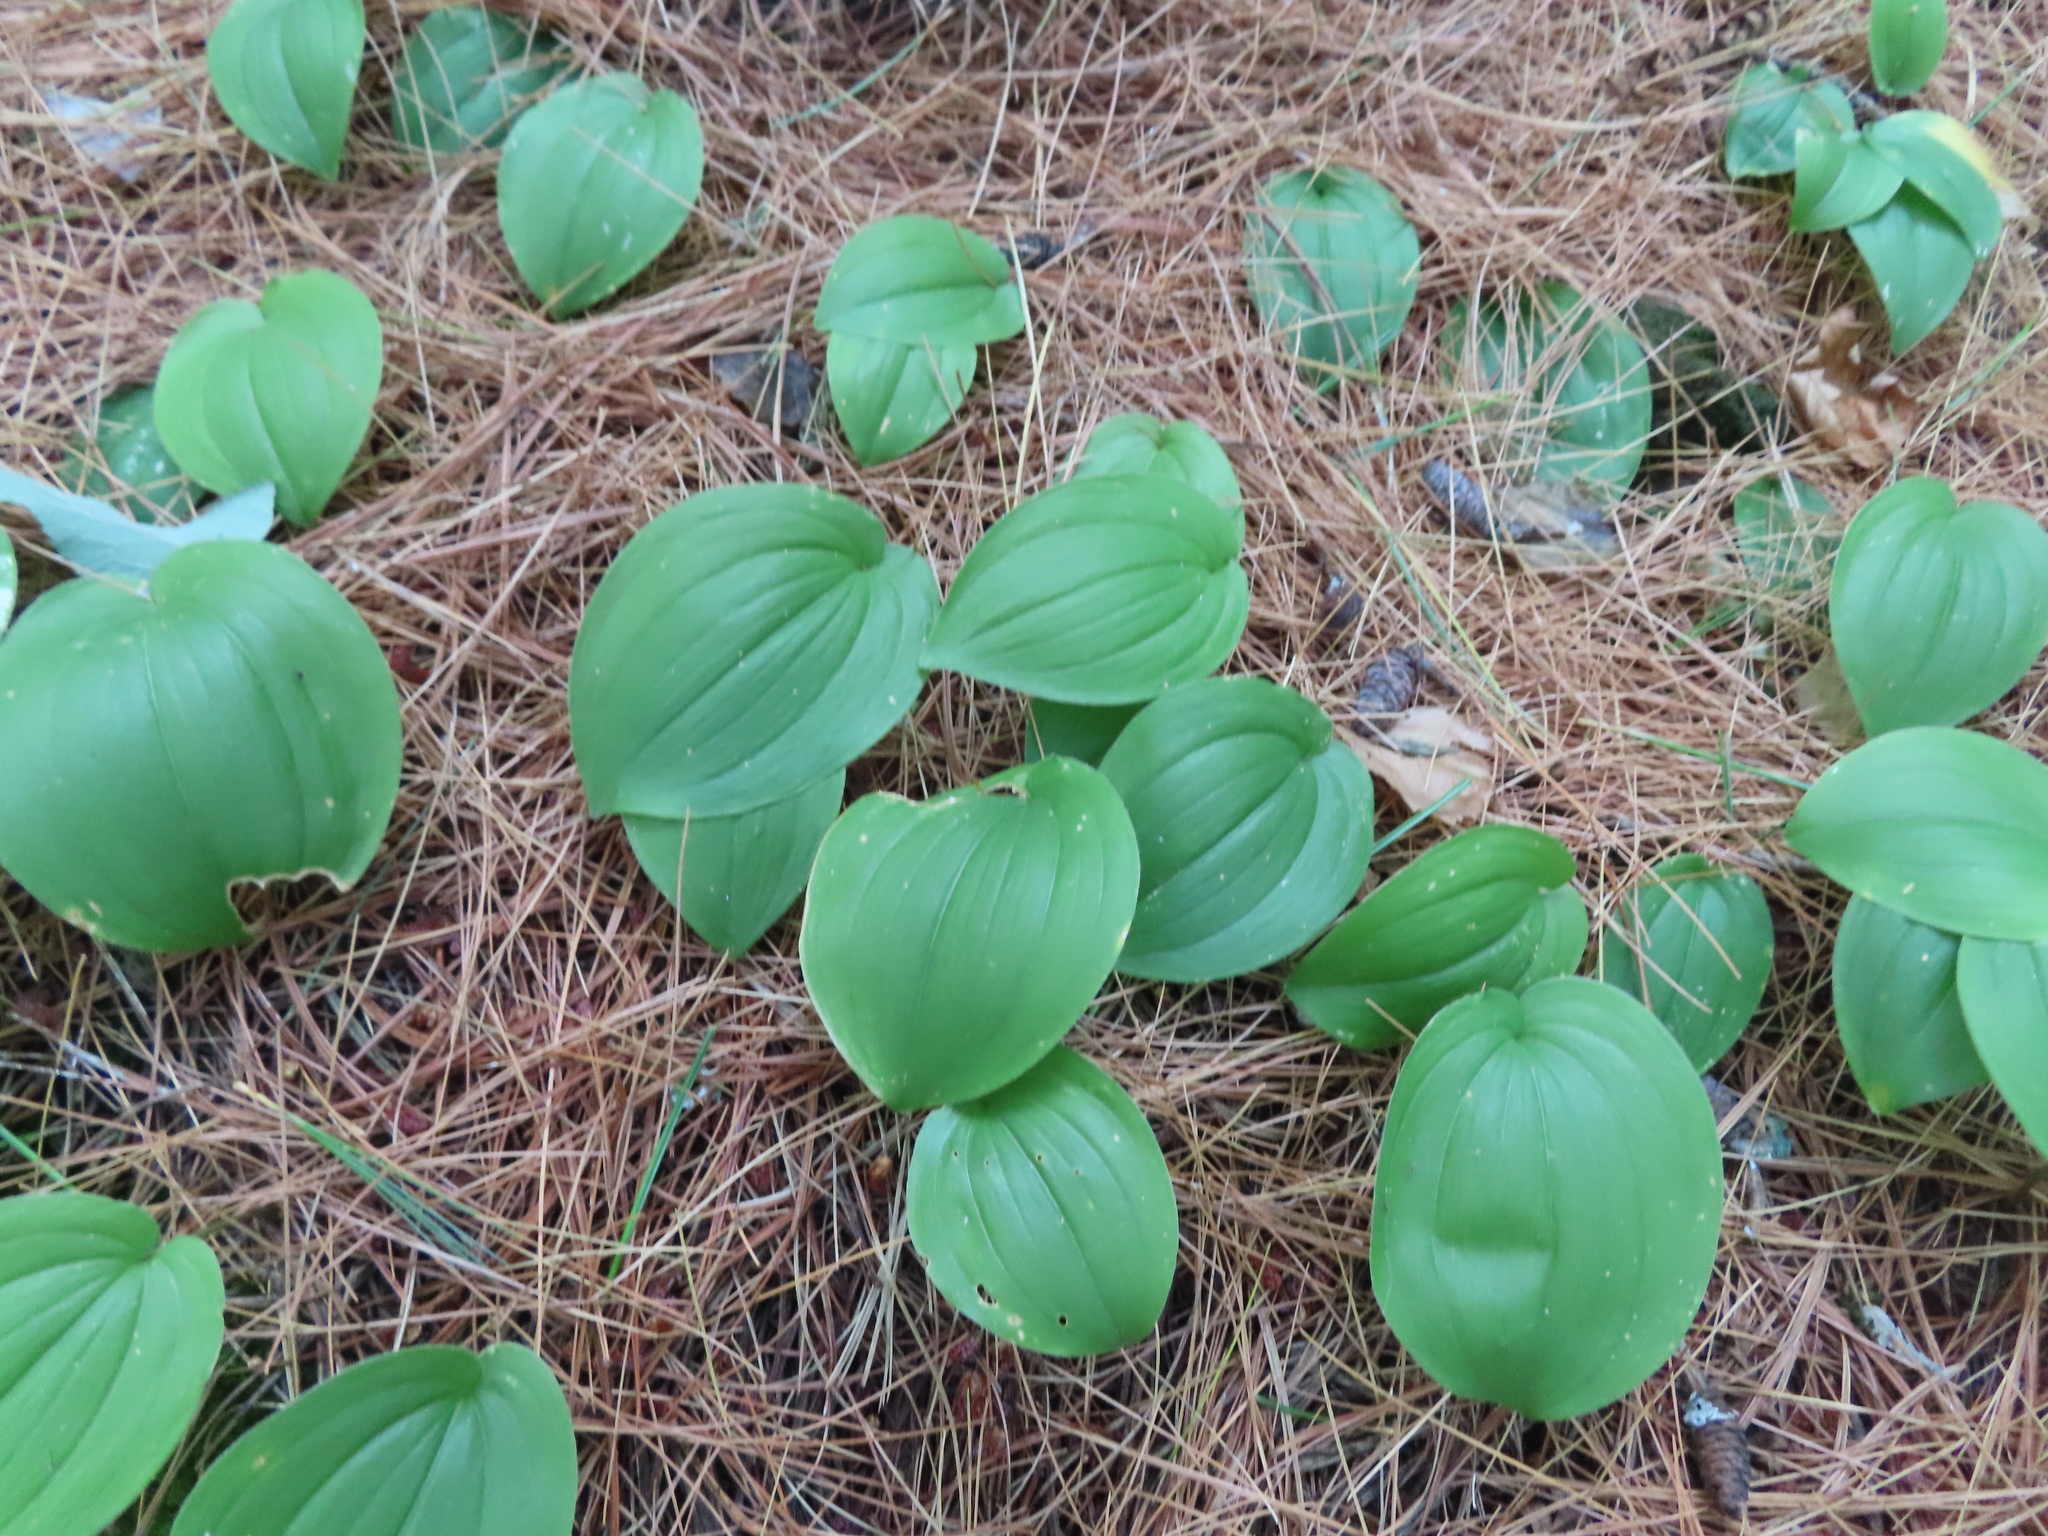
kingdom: Plantae
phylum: Tracheophyta
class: Liliopsida
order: Asparagales
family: Asparagaceae
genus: Maianthemum
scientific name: Maianthemum canadense
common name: False lily-of-the-valley
